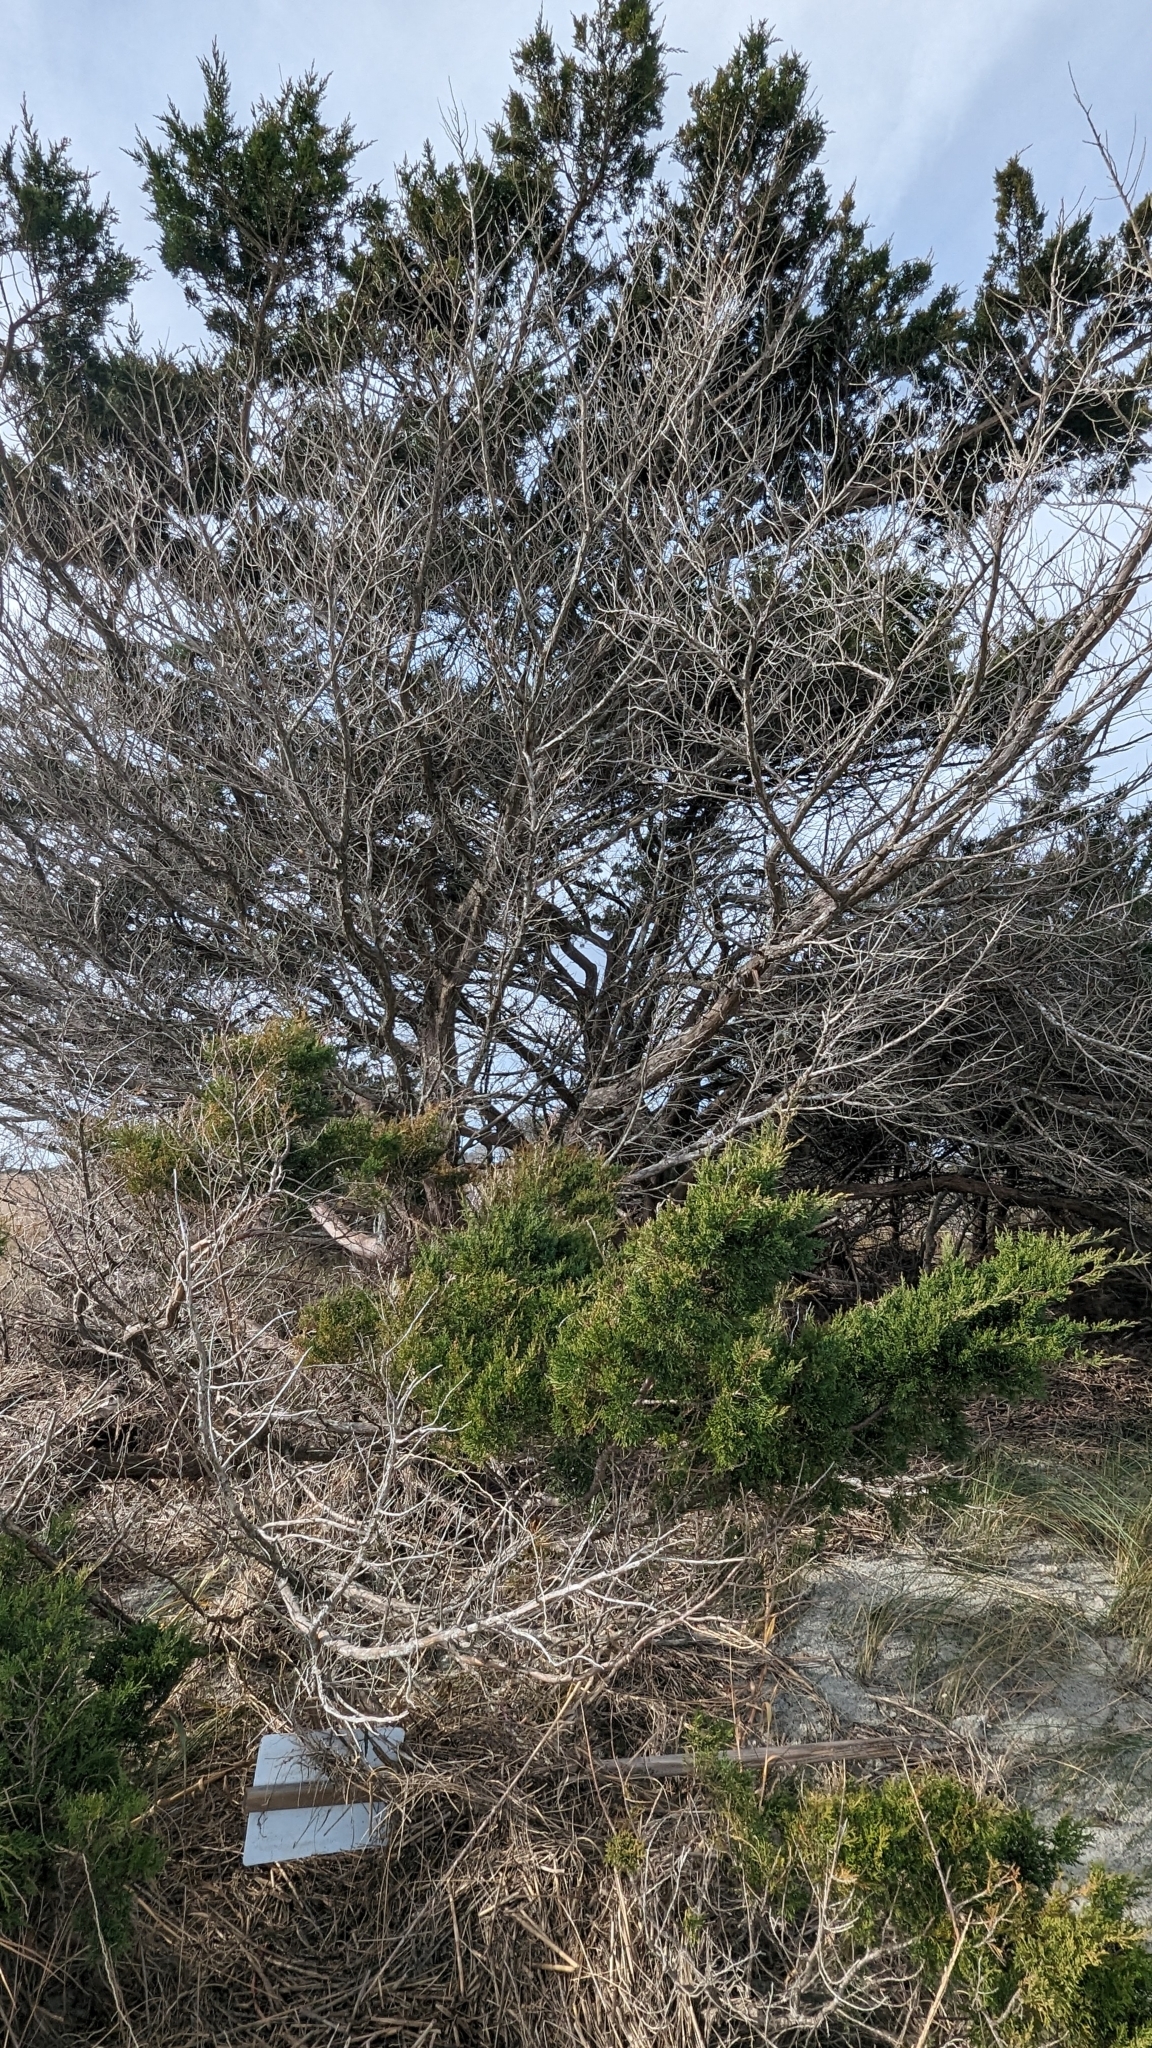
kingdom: Plantae
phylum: Tracheophyta
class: Pinopsida
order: Pinales
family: Cupressaceae
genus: Juniperus
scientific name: Juniperus virginiana
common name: Red juniper
